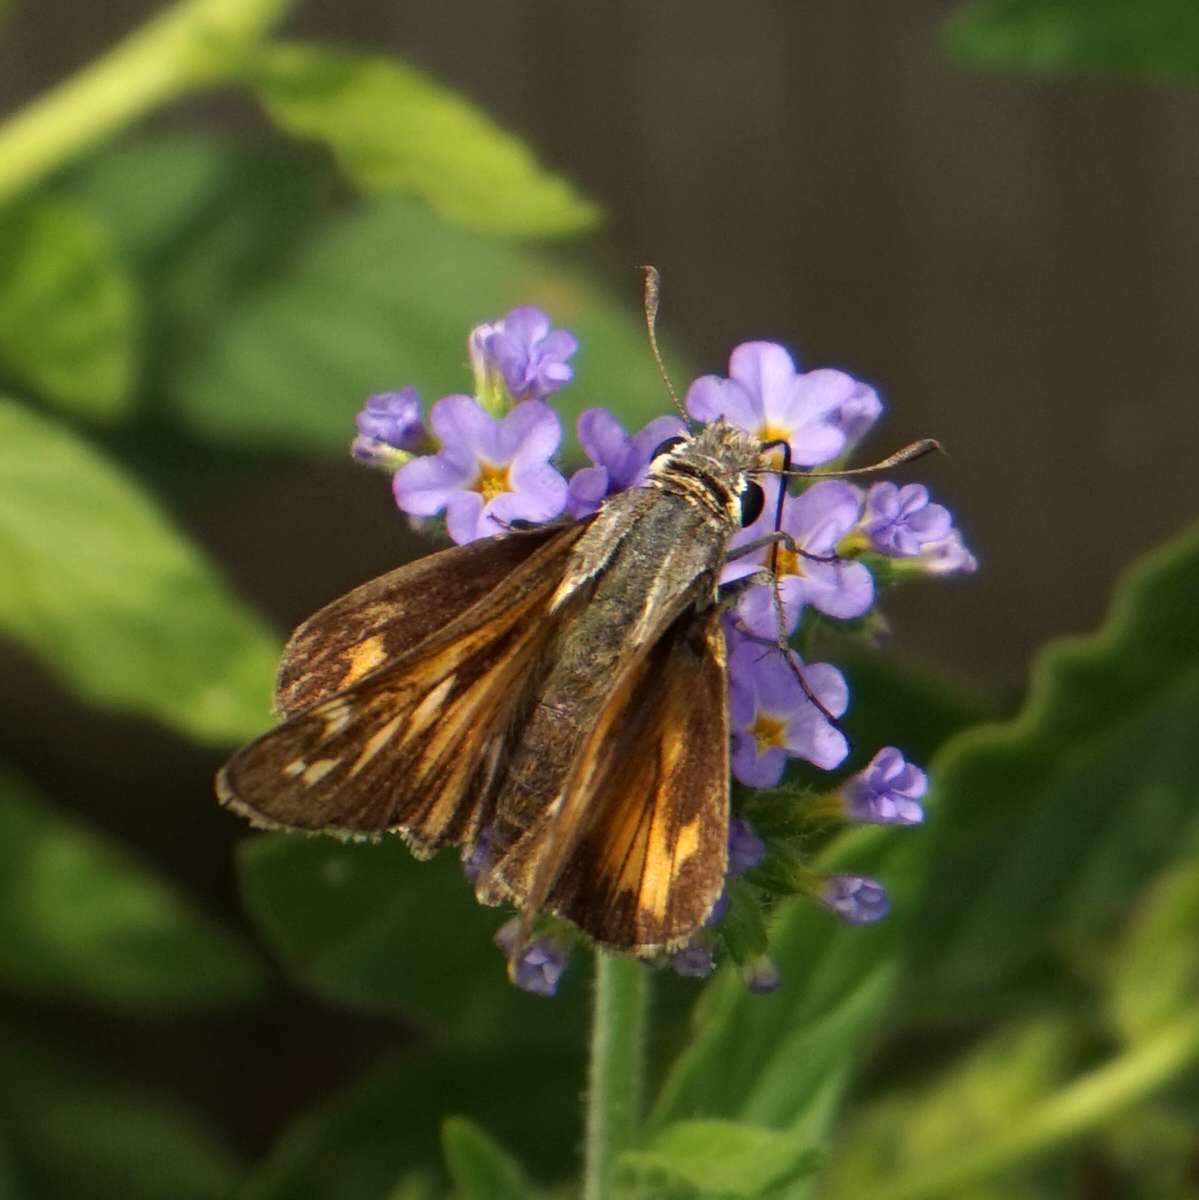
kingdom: Animalia
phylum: Arthropoda
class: Insecta
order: Lepidoptera
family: Hesperiidae
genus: Atalopedes
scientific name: Atalopedes
